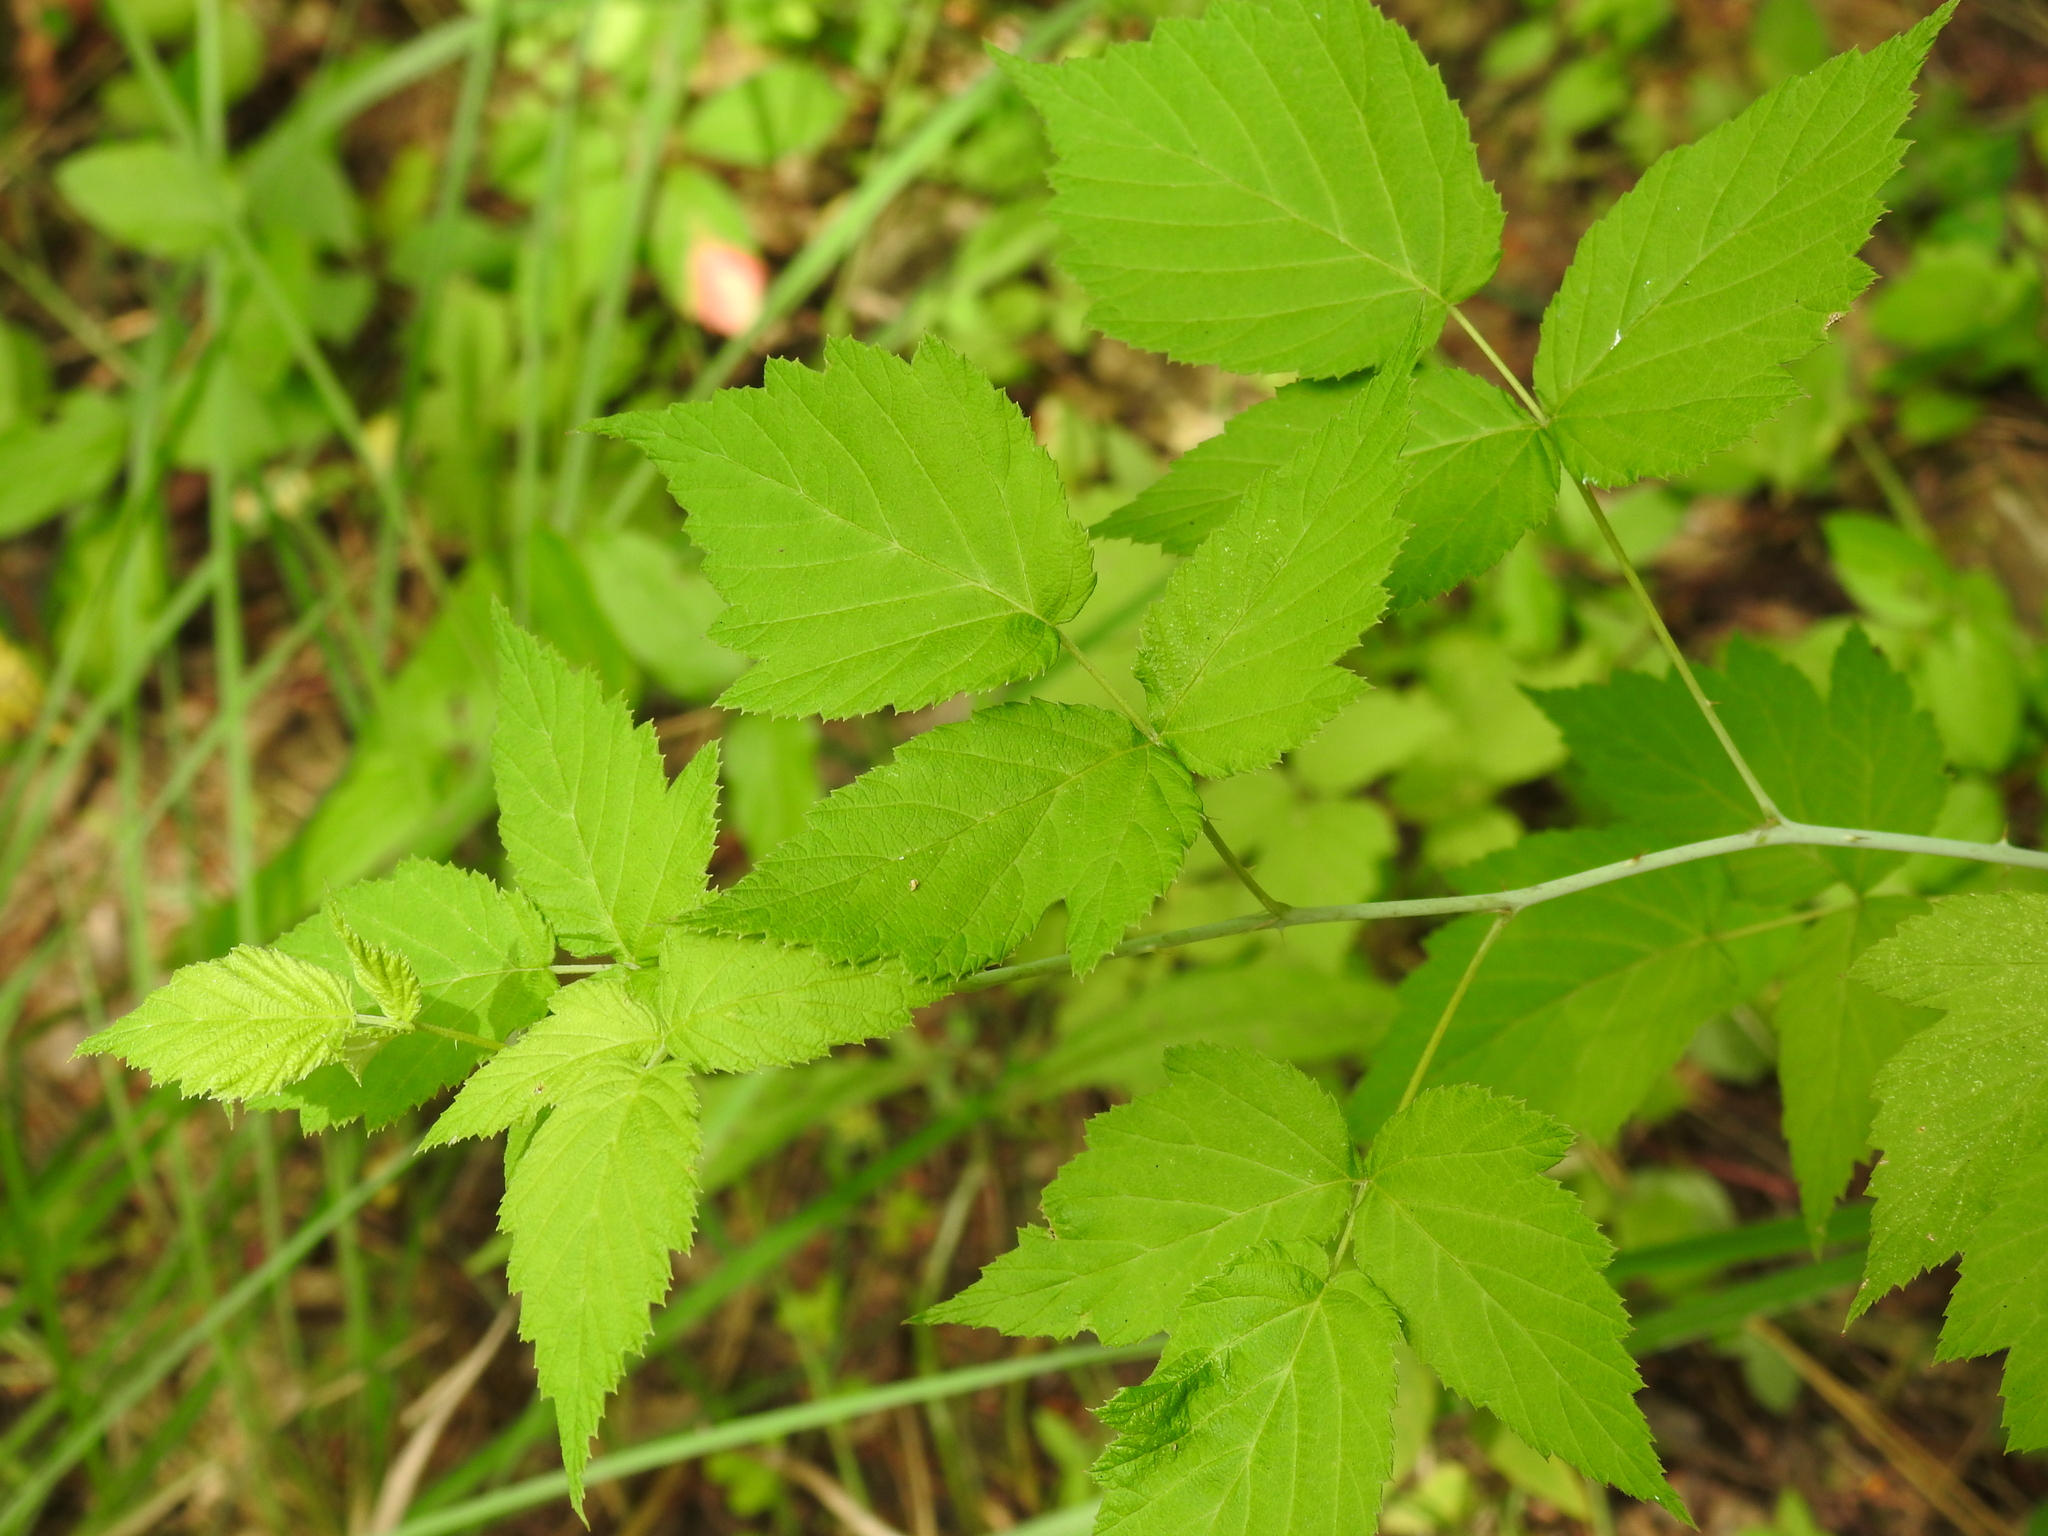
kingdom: Plantae
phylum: Tracheophyta
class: Magnoliopsida
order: Rosales
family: Rosaceae
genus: Rubus
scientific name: Rubus occidentalis
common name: Black raspberry
